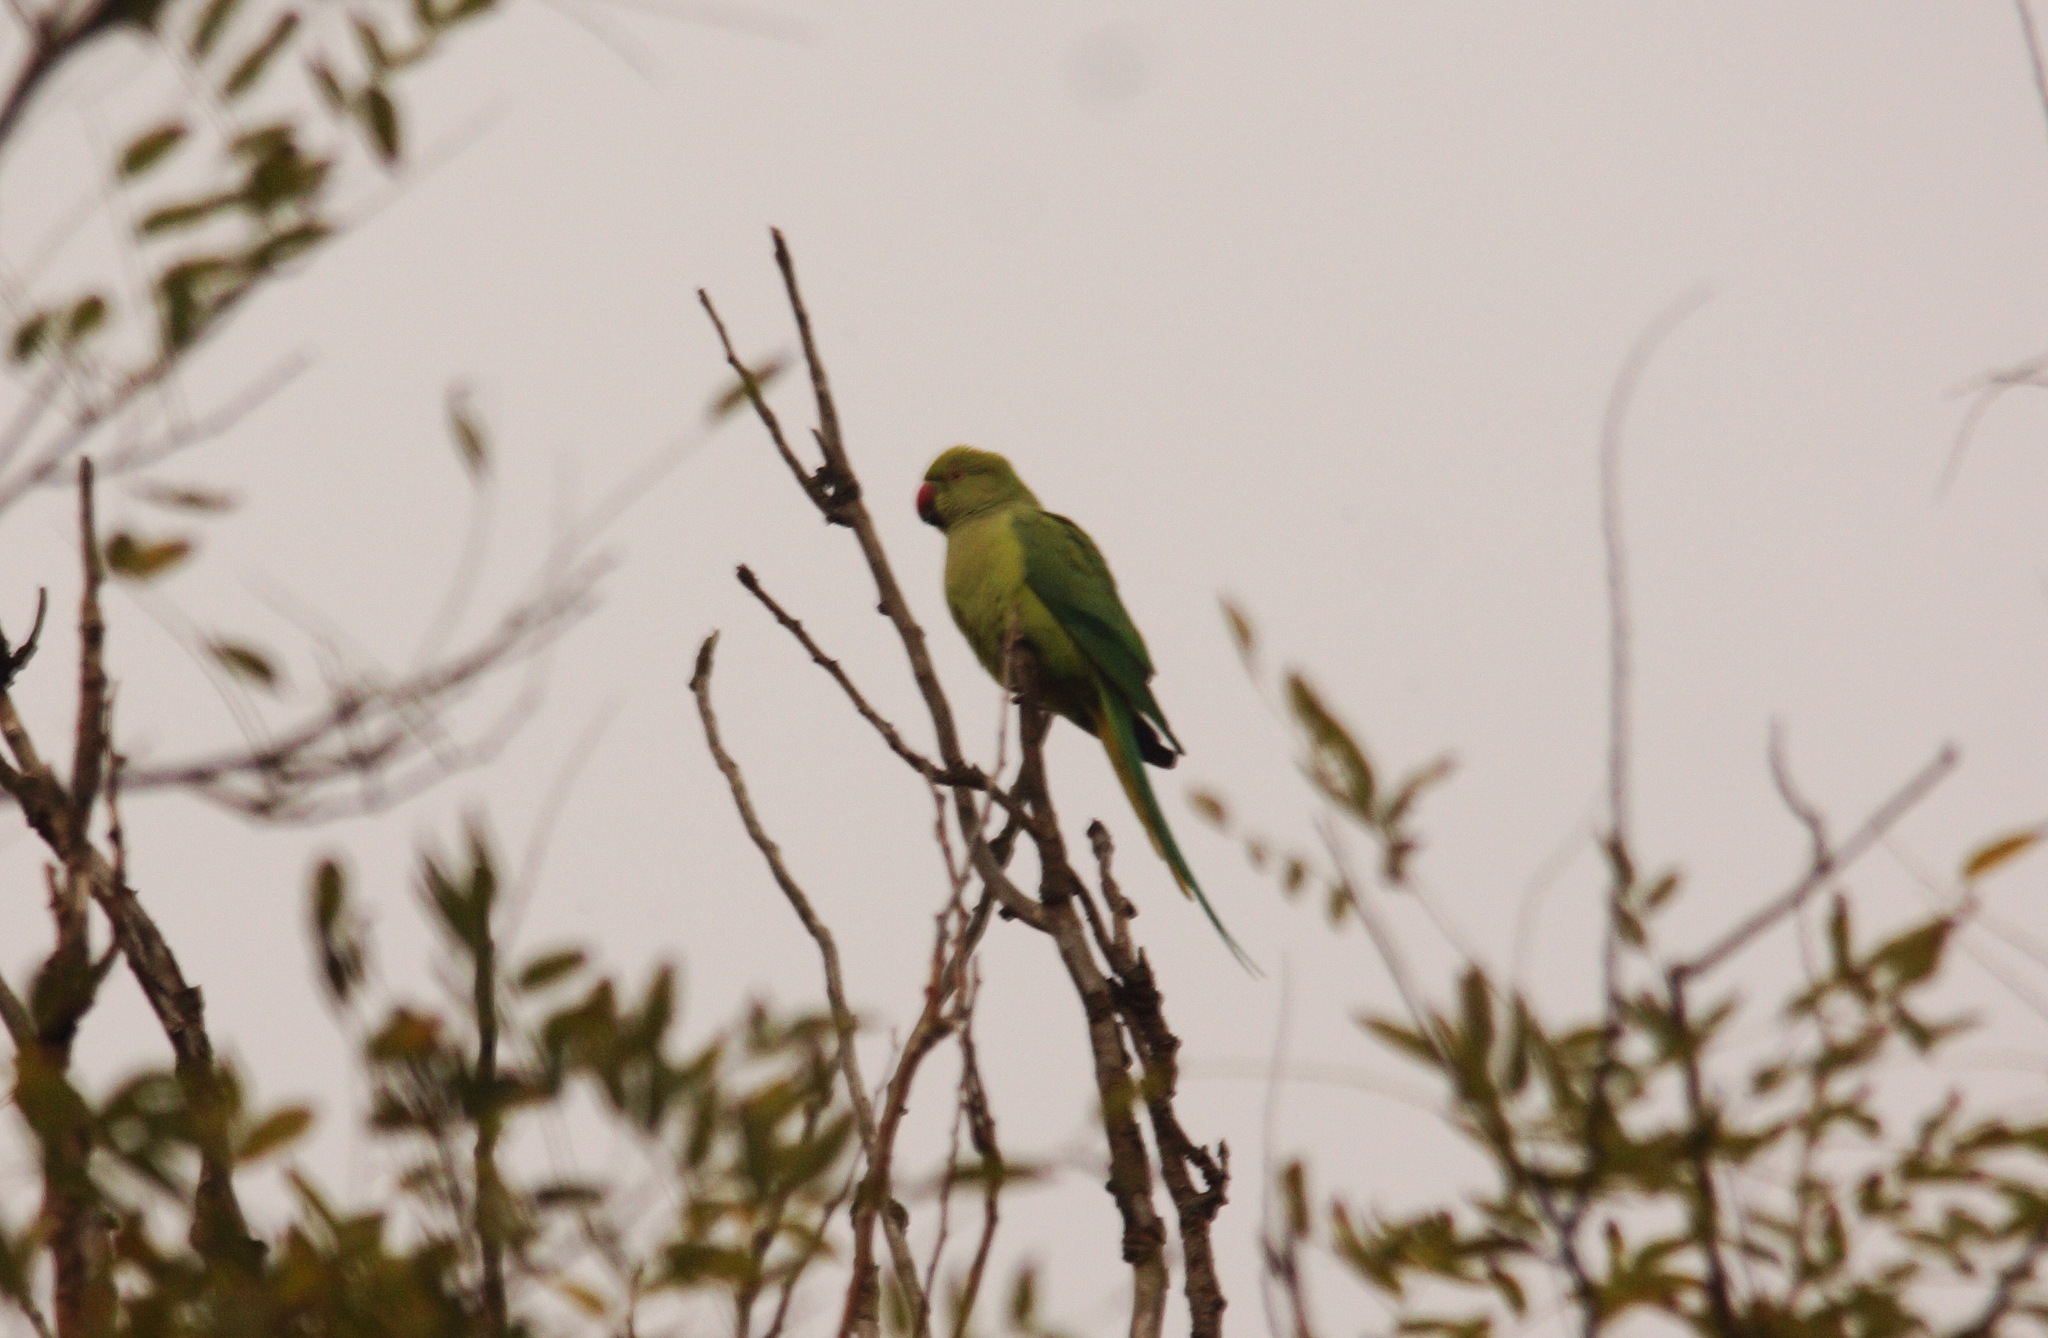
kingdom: Animalia
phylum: Chordata
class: Aves
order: Psittaciformes
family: Psittacidae
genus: Psittacula
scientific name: Psittacula krameri
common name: Rose-ringed parakeet
